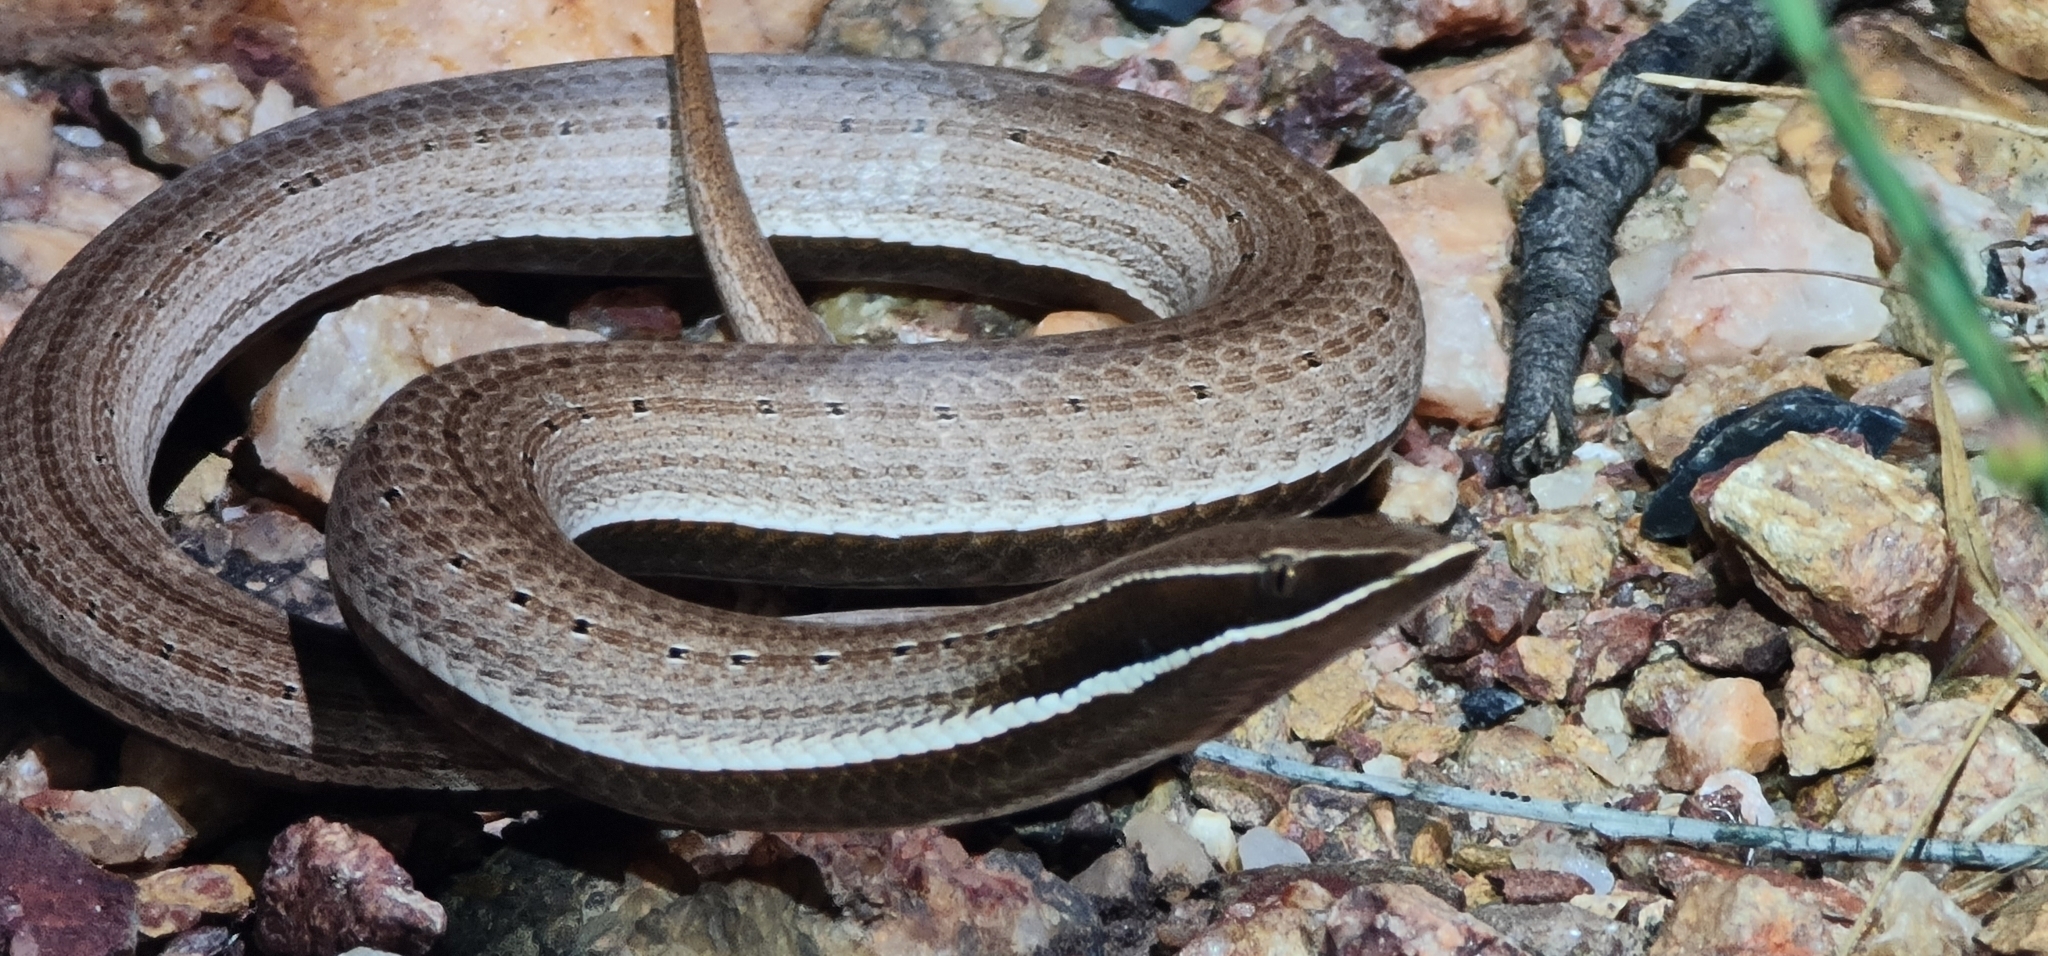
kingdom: Animalia
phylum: Chordata
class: Squamata
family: Pygopodidae
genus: Lialis
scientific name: Lialis burtonis
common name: Burton's legless lizard
